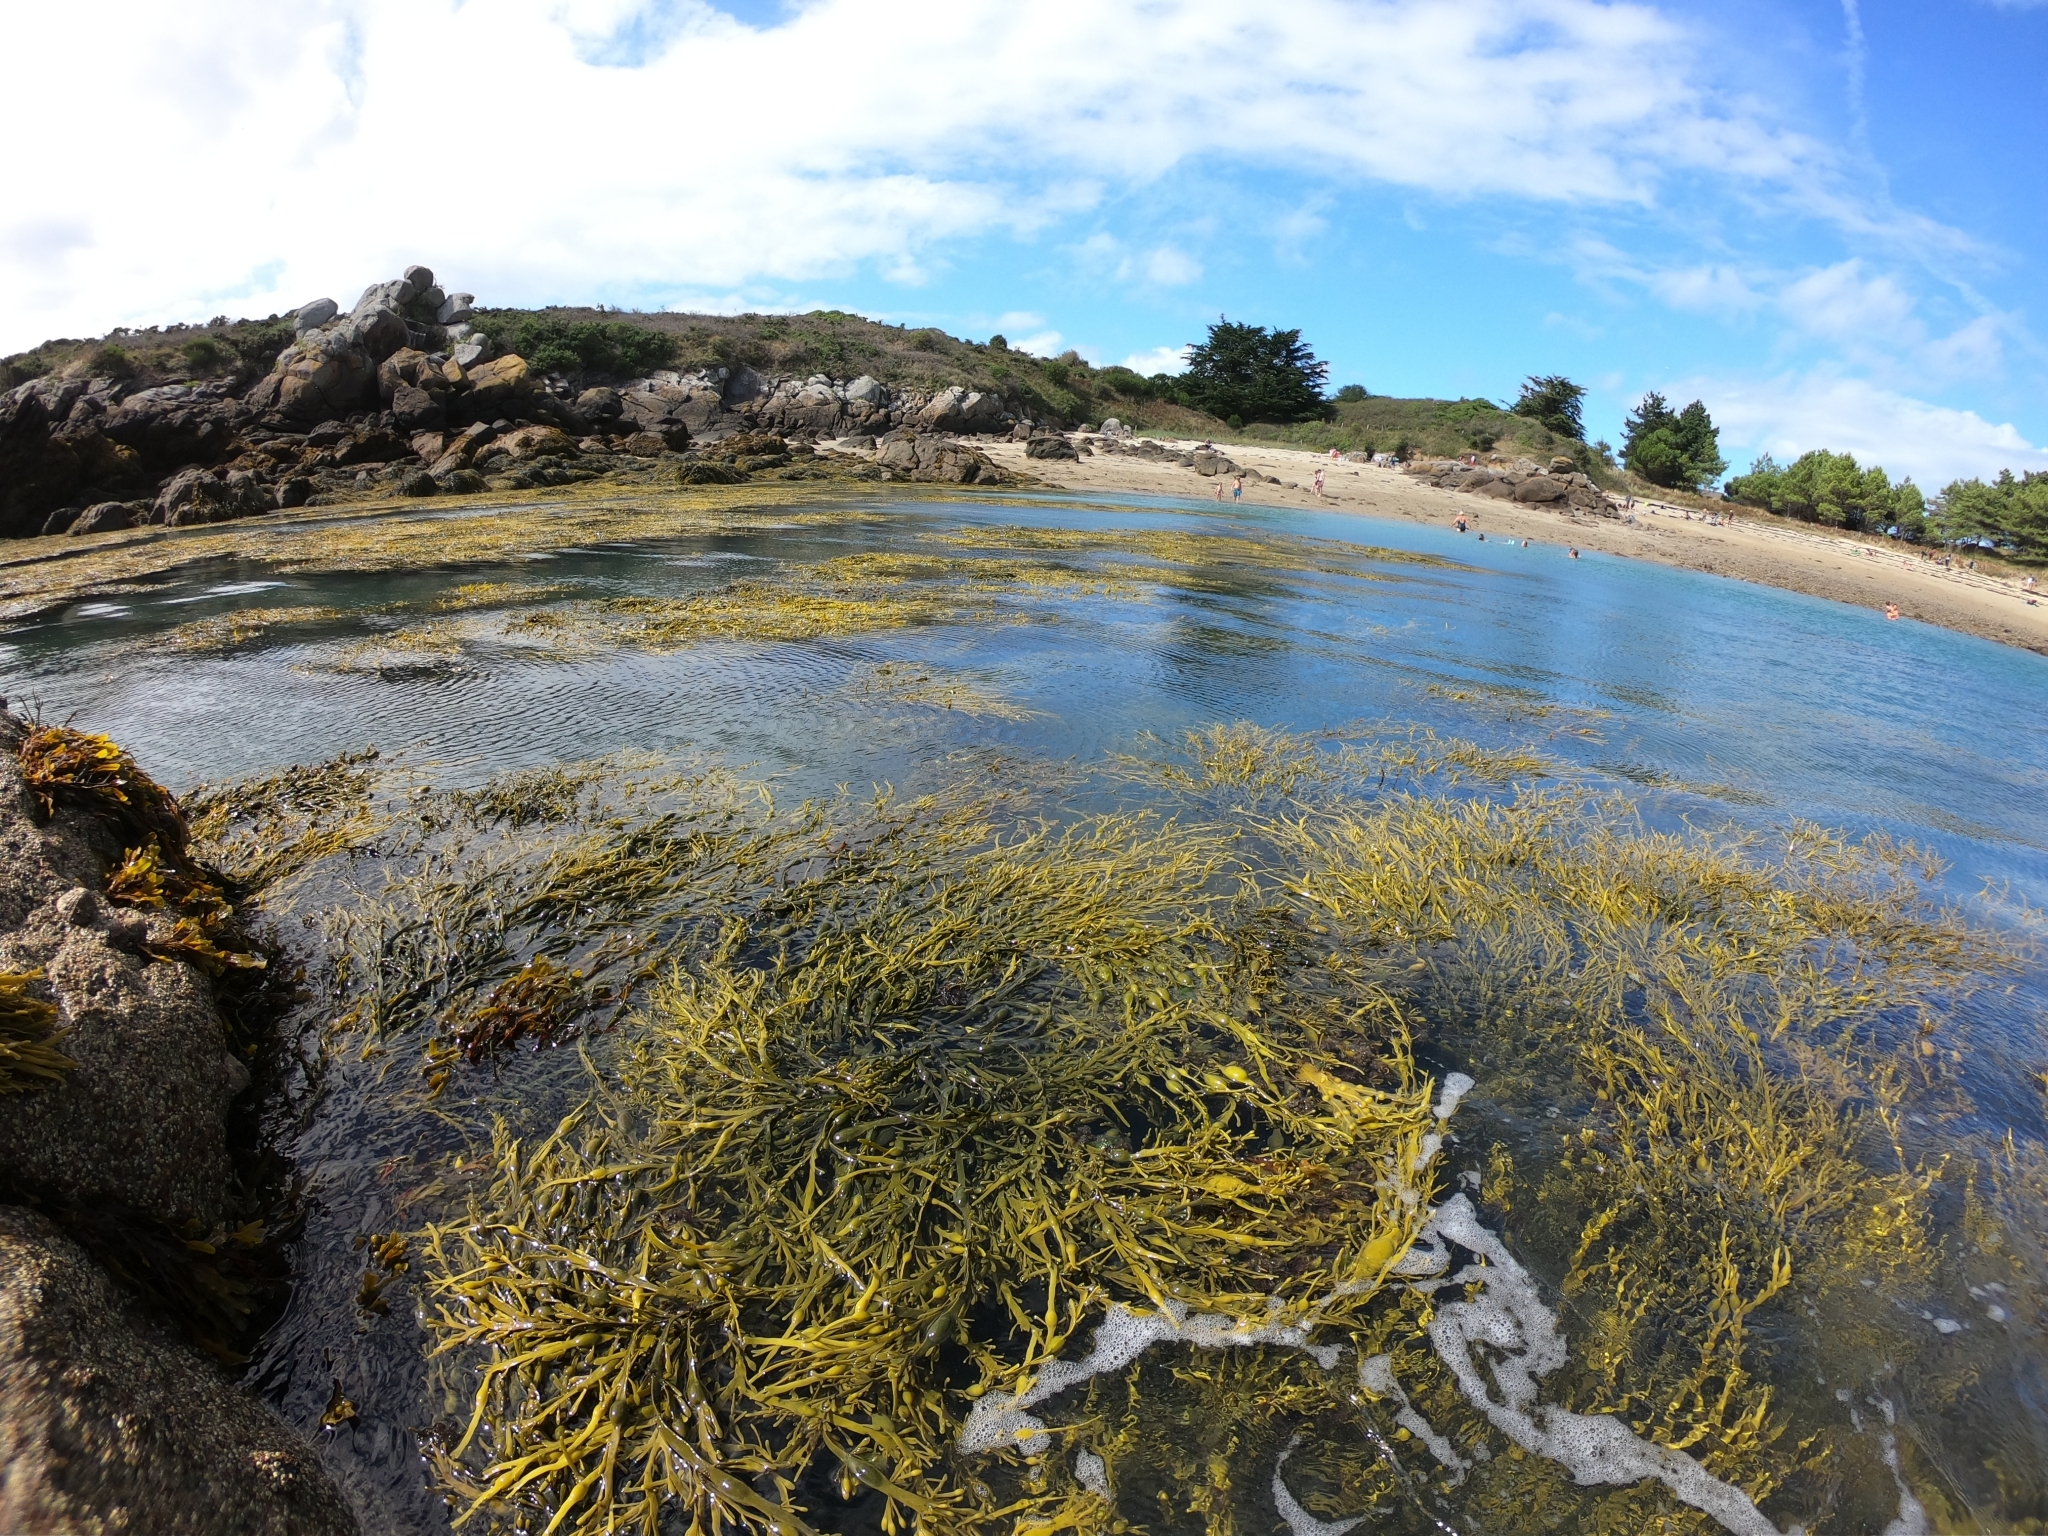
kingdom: Chromista
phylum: Ochrophyta
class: Phaeophyceae
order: Fucales
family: Fucaceae
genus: Ascophyllum
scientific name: Ascophyllum nodosum
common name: Knotted wrack
